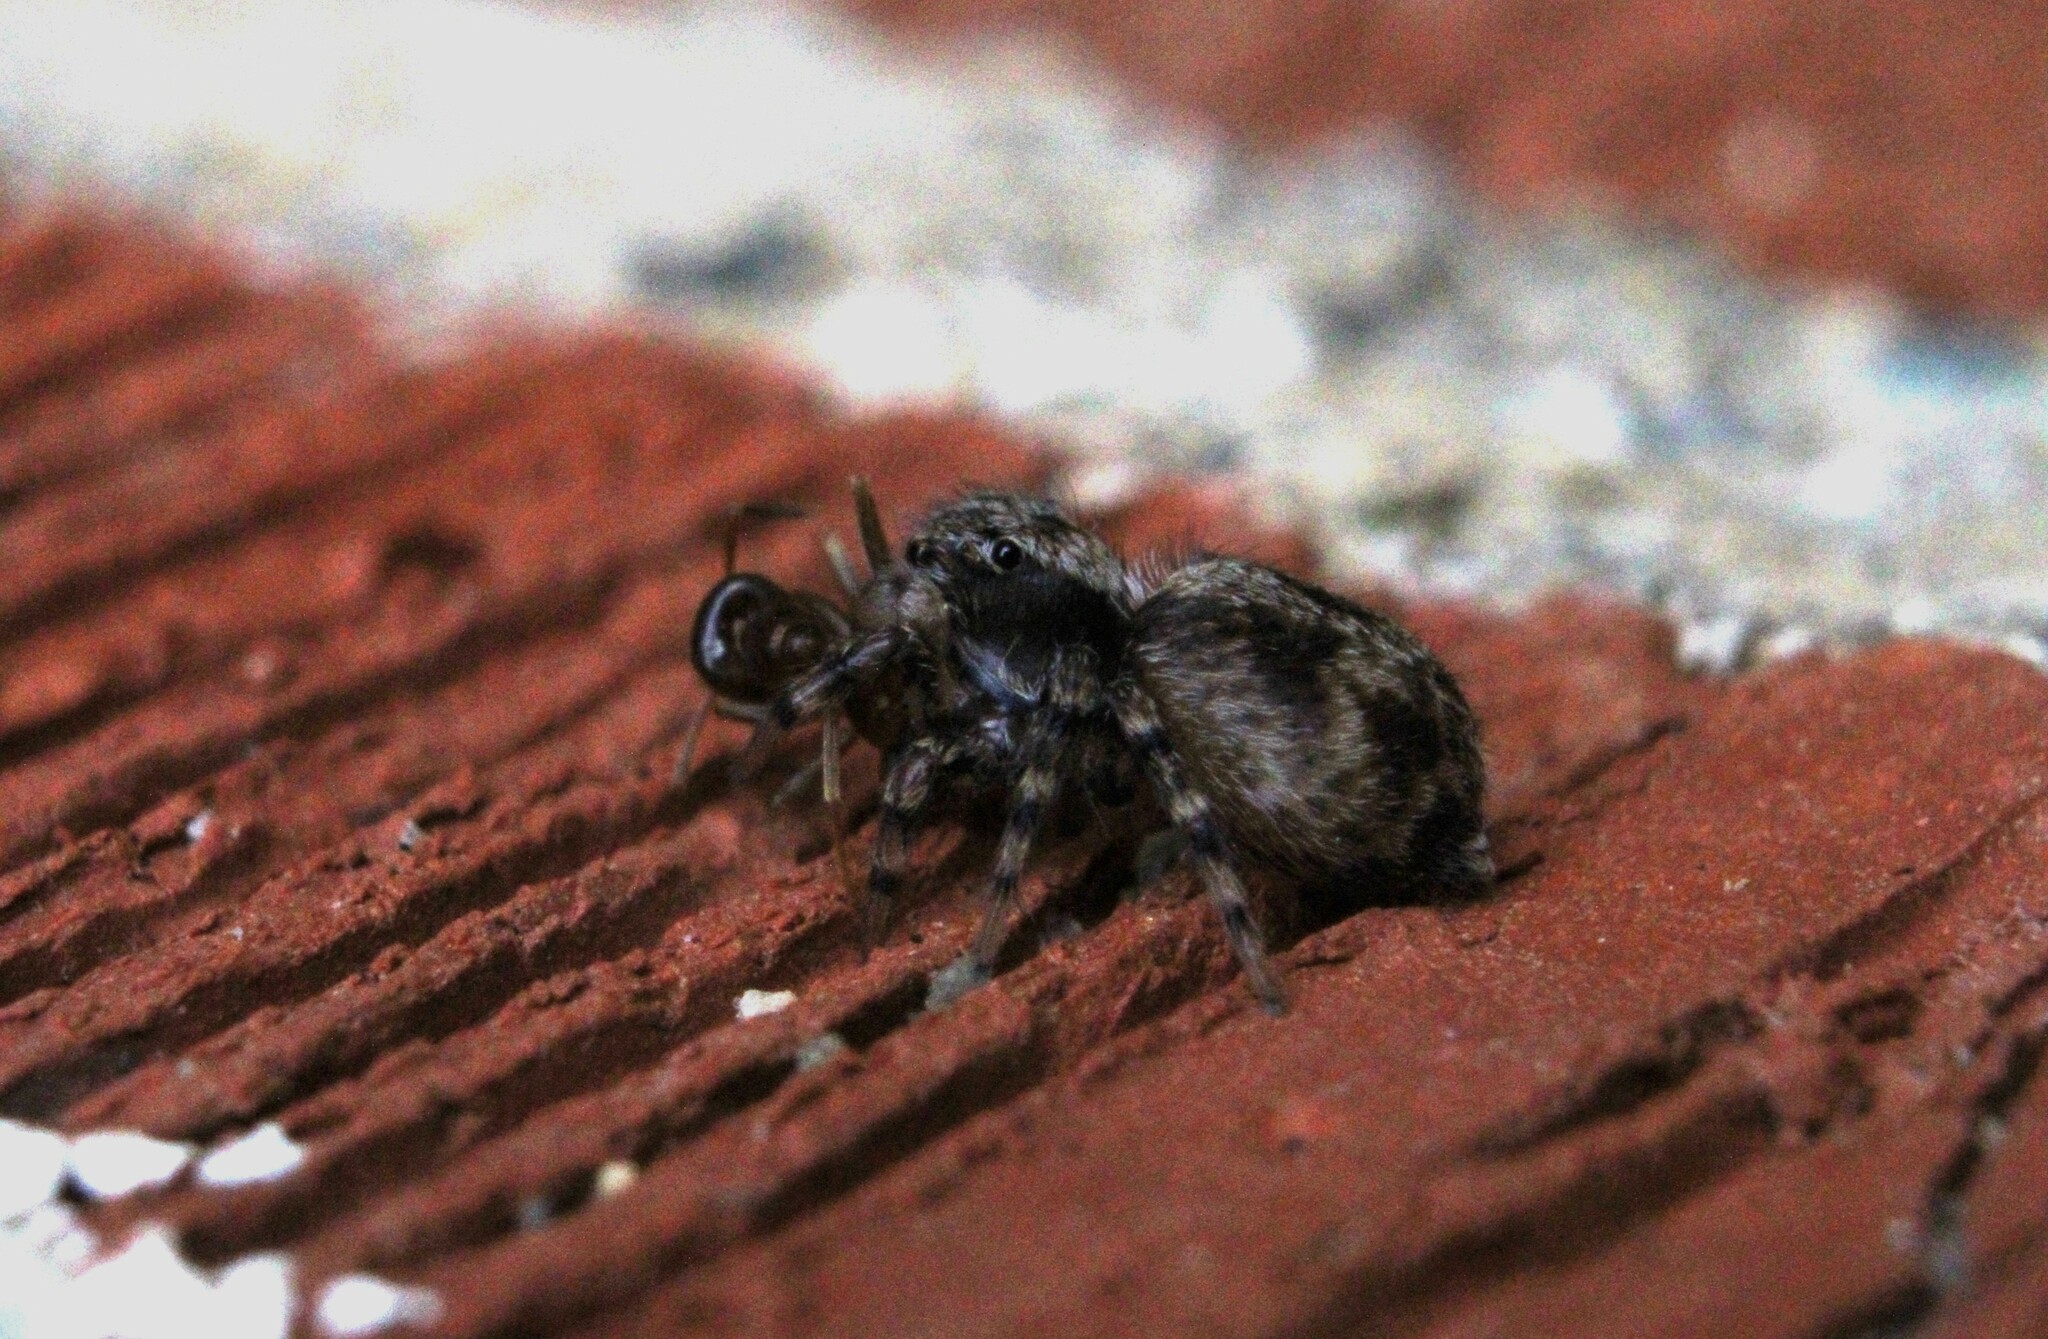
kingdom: Animalia
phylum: Arthropoda
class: Arachnida
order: Araneae
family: Salticidae
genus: Naphrys
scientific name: Naphrys pulex
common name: Flea jumping spider
